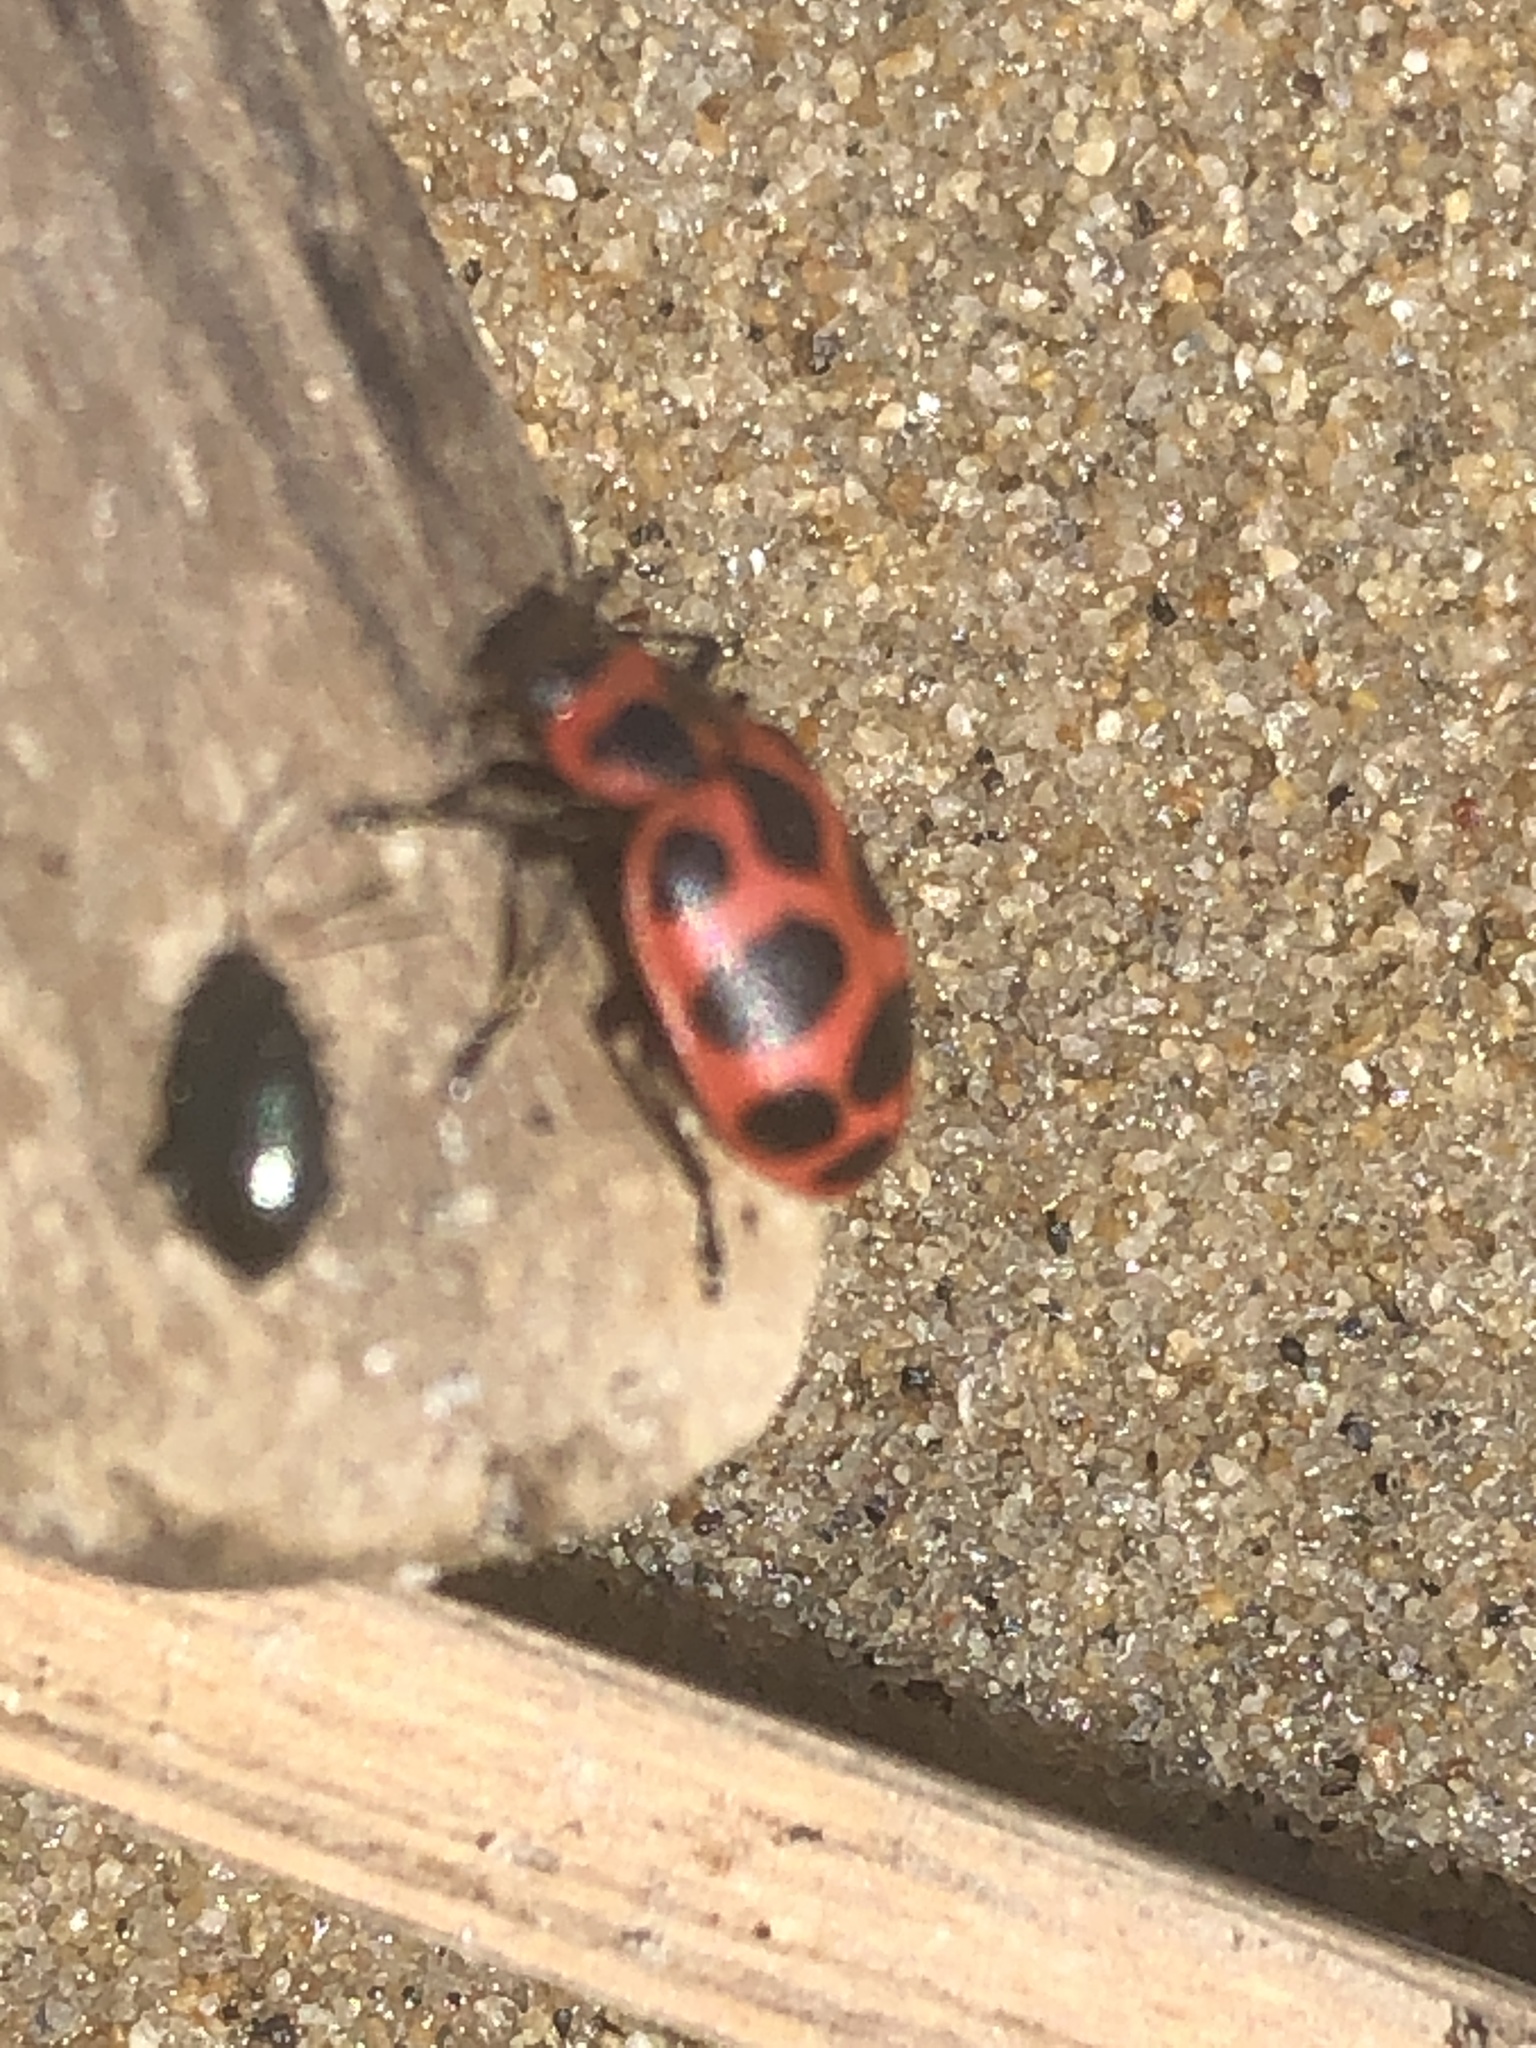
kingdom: Animalia
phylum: Arthropoda
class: Insecta
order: Coleoptera
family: Coccinellidae
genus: Coleomegilla
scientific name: Coleomegilla maculata
